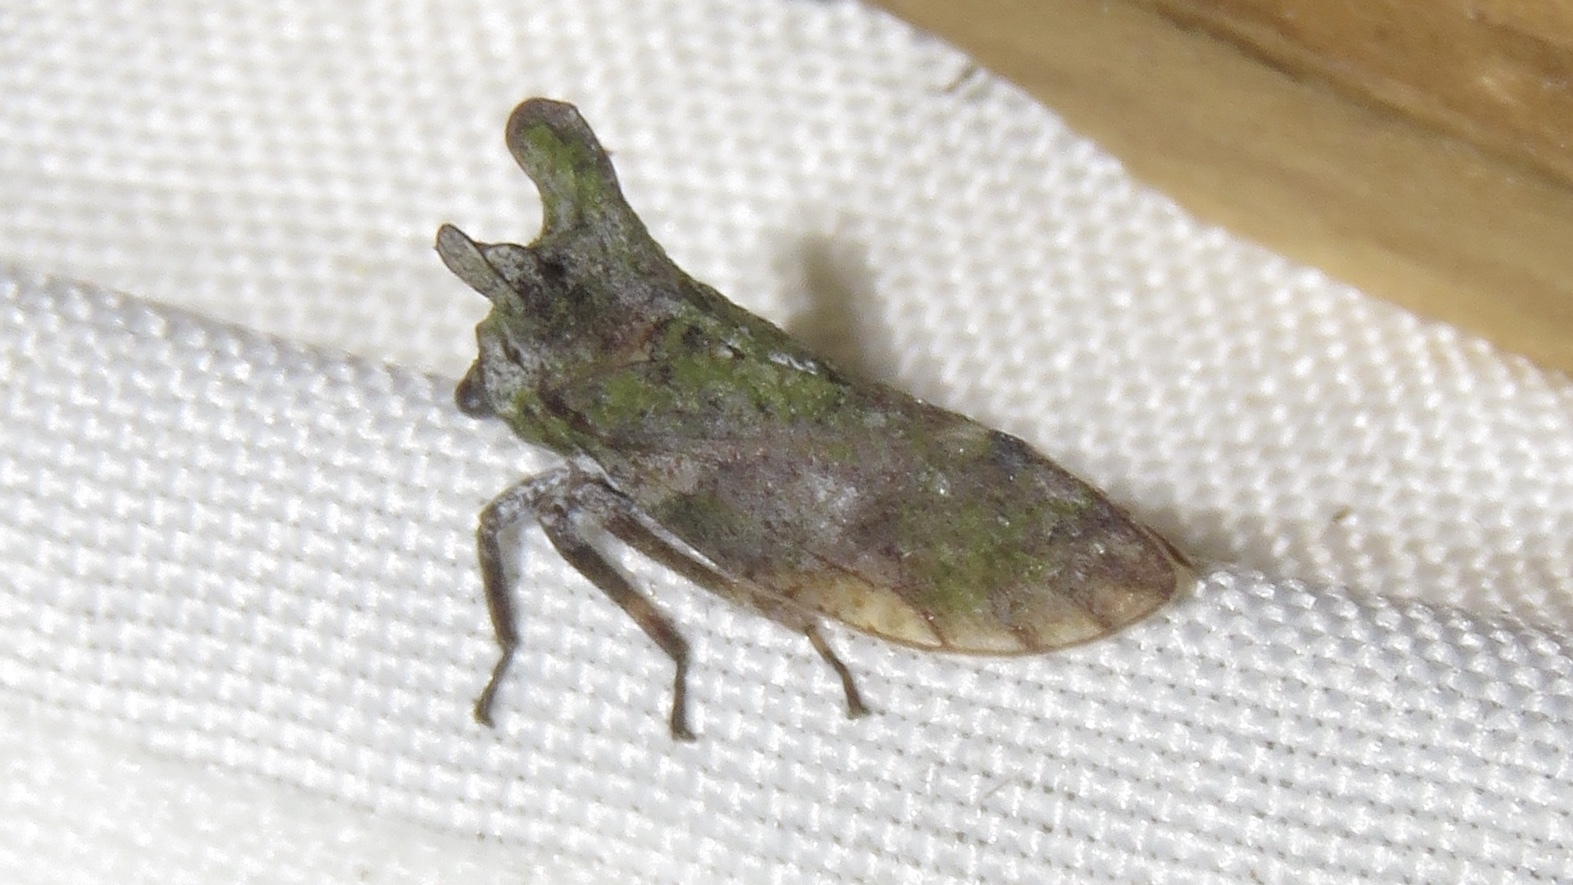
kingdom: Animalia
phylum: Arthropoda
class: Insecta
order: Hemiptera
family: Membracidae
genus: Microcentrus
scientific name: Microcentrus perdita
